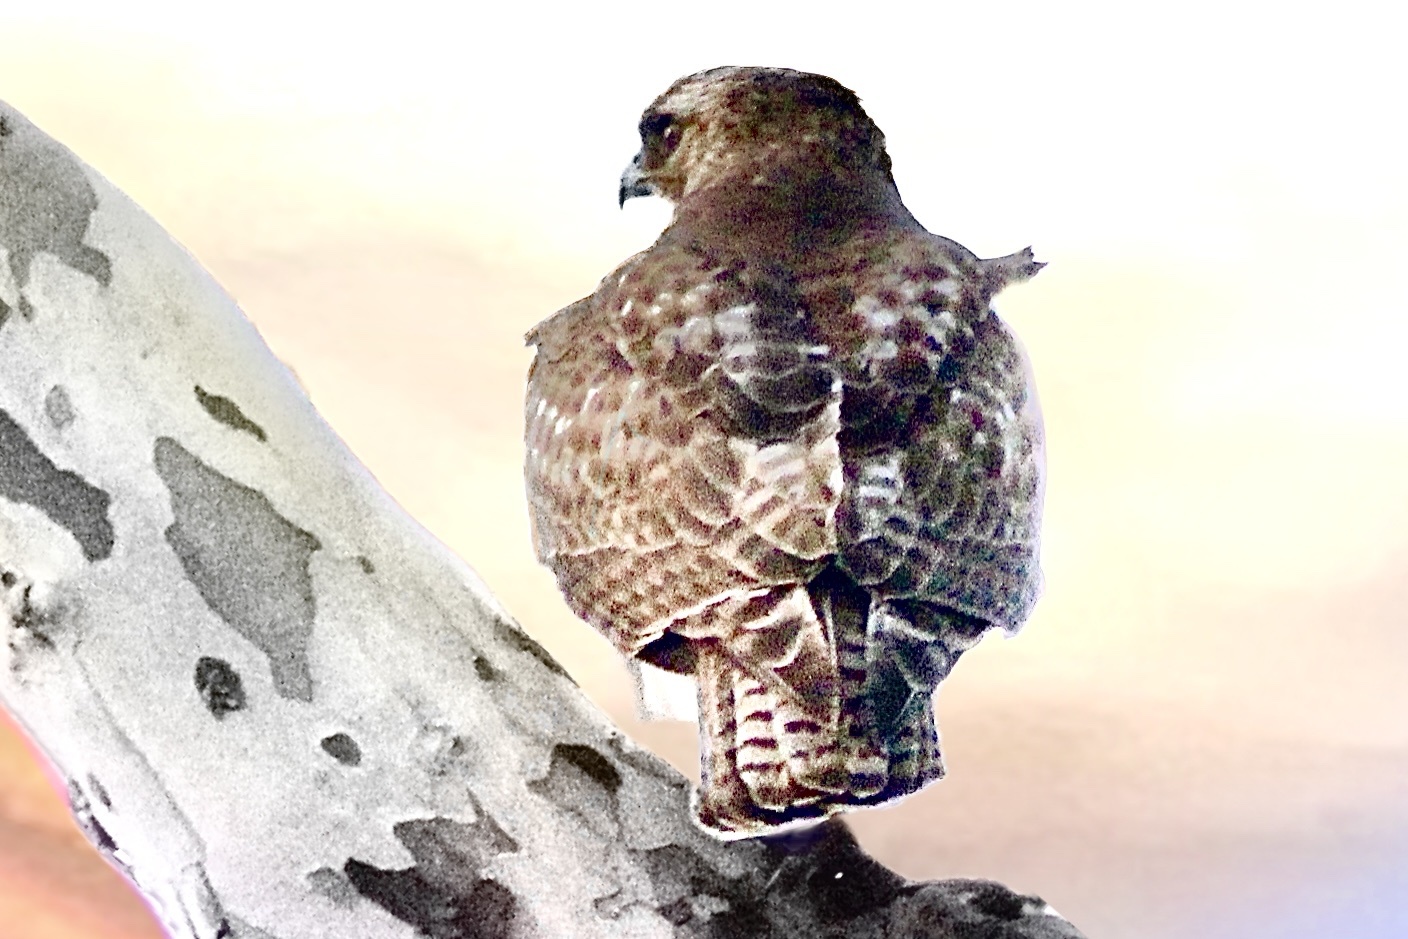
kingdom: Animalia
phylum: Chordata
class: Aves
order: Accipitriformes
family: Accipitridae
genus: Buteo
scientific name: Buteo jamaicensis
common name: Red-tailed hawk
